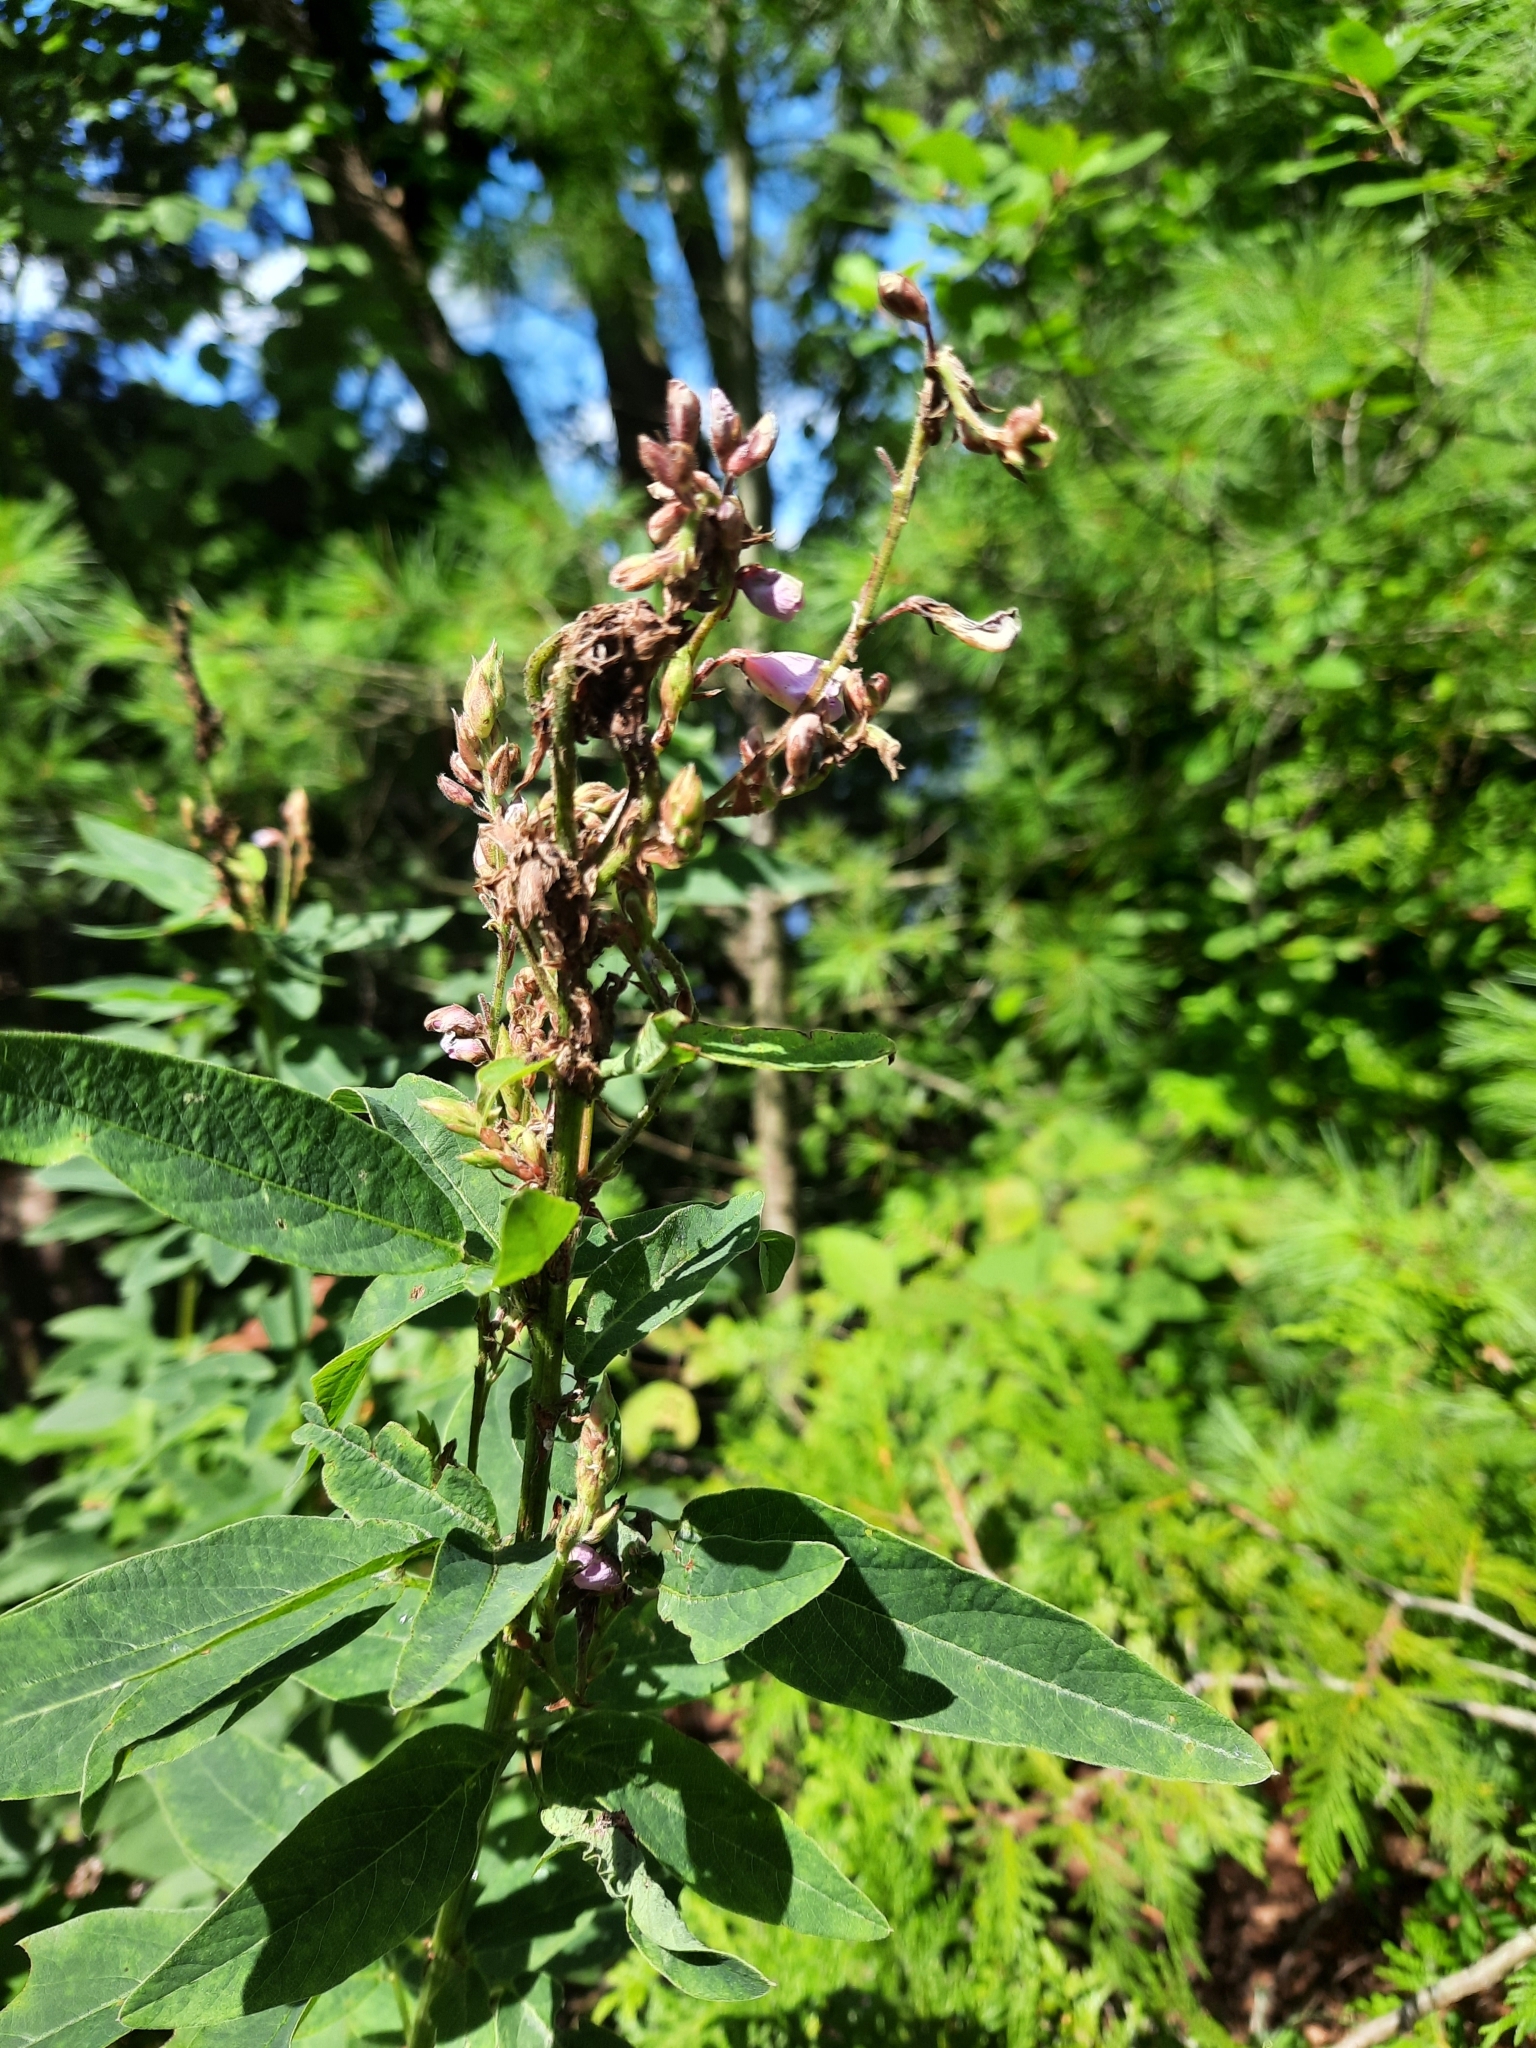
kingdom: Plantae
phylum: Tracheophyta
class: Magnoliopsida
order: Fabales
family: Fabaceae
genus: Desmodium
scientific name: Desmodium canadense
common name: Canada tick-trefoil
